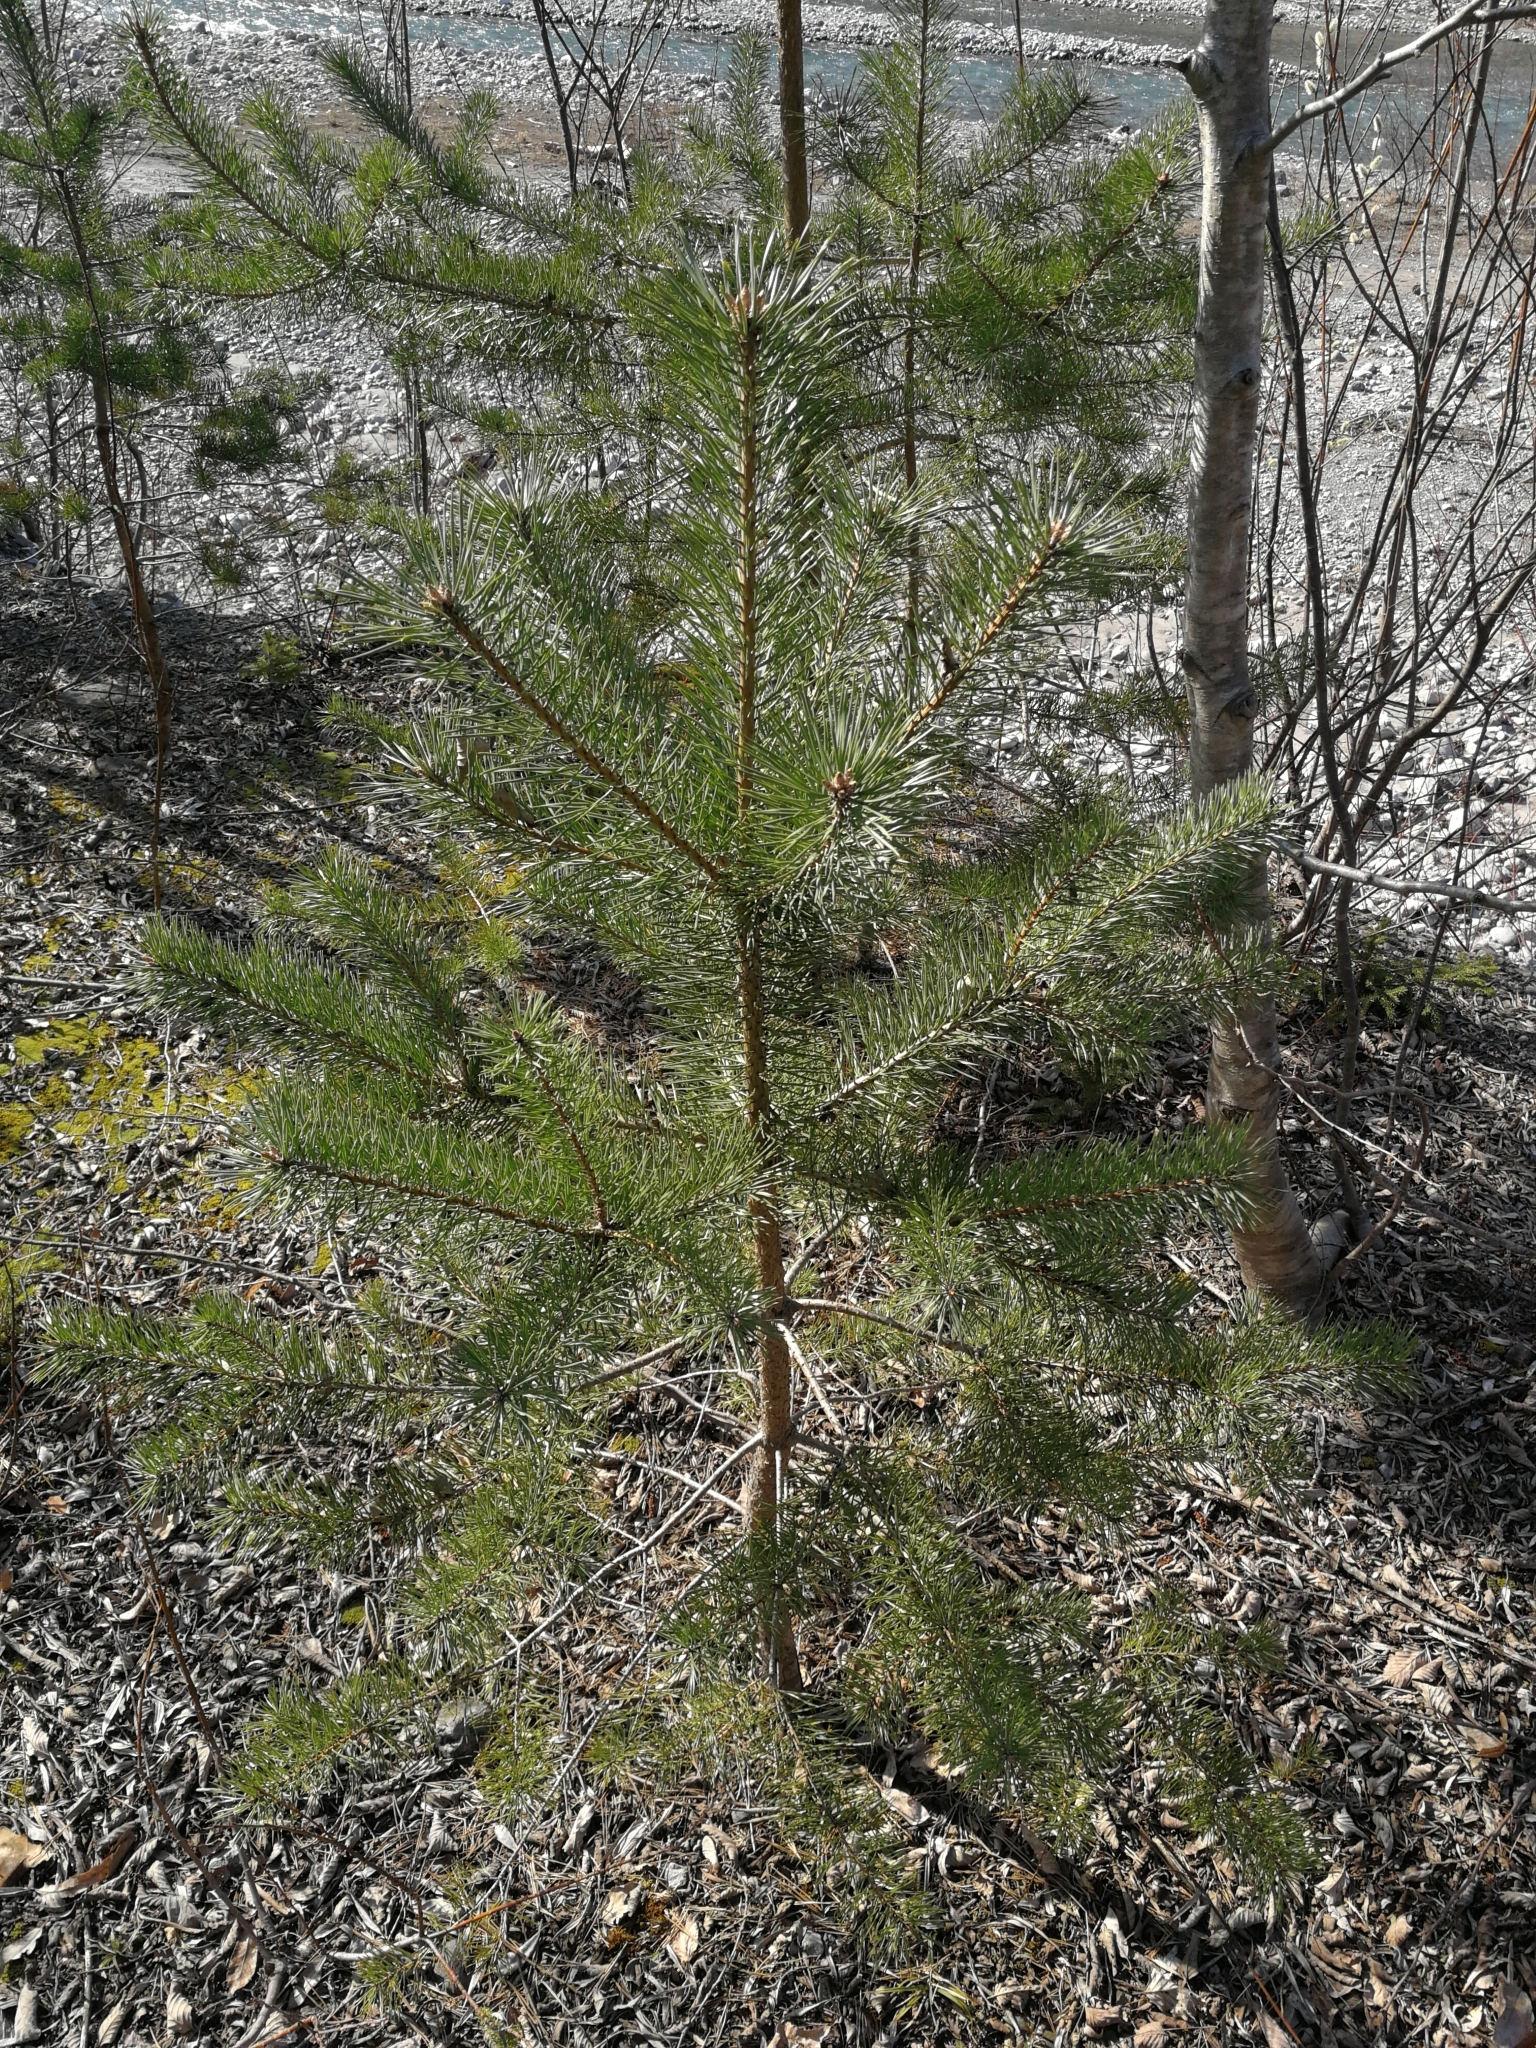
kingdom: Plantae
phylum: Tracheophyta
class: Pinopsida
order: Pinales
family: Pinaceae
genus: Pinus
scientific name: Pinus sylvestris
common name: Scots pine
